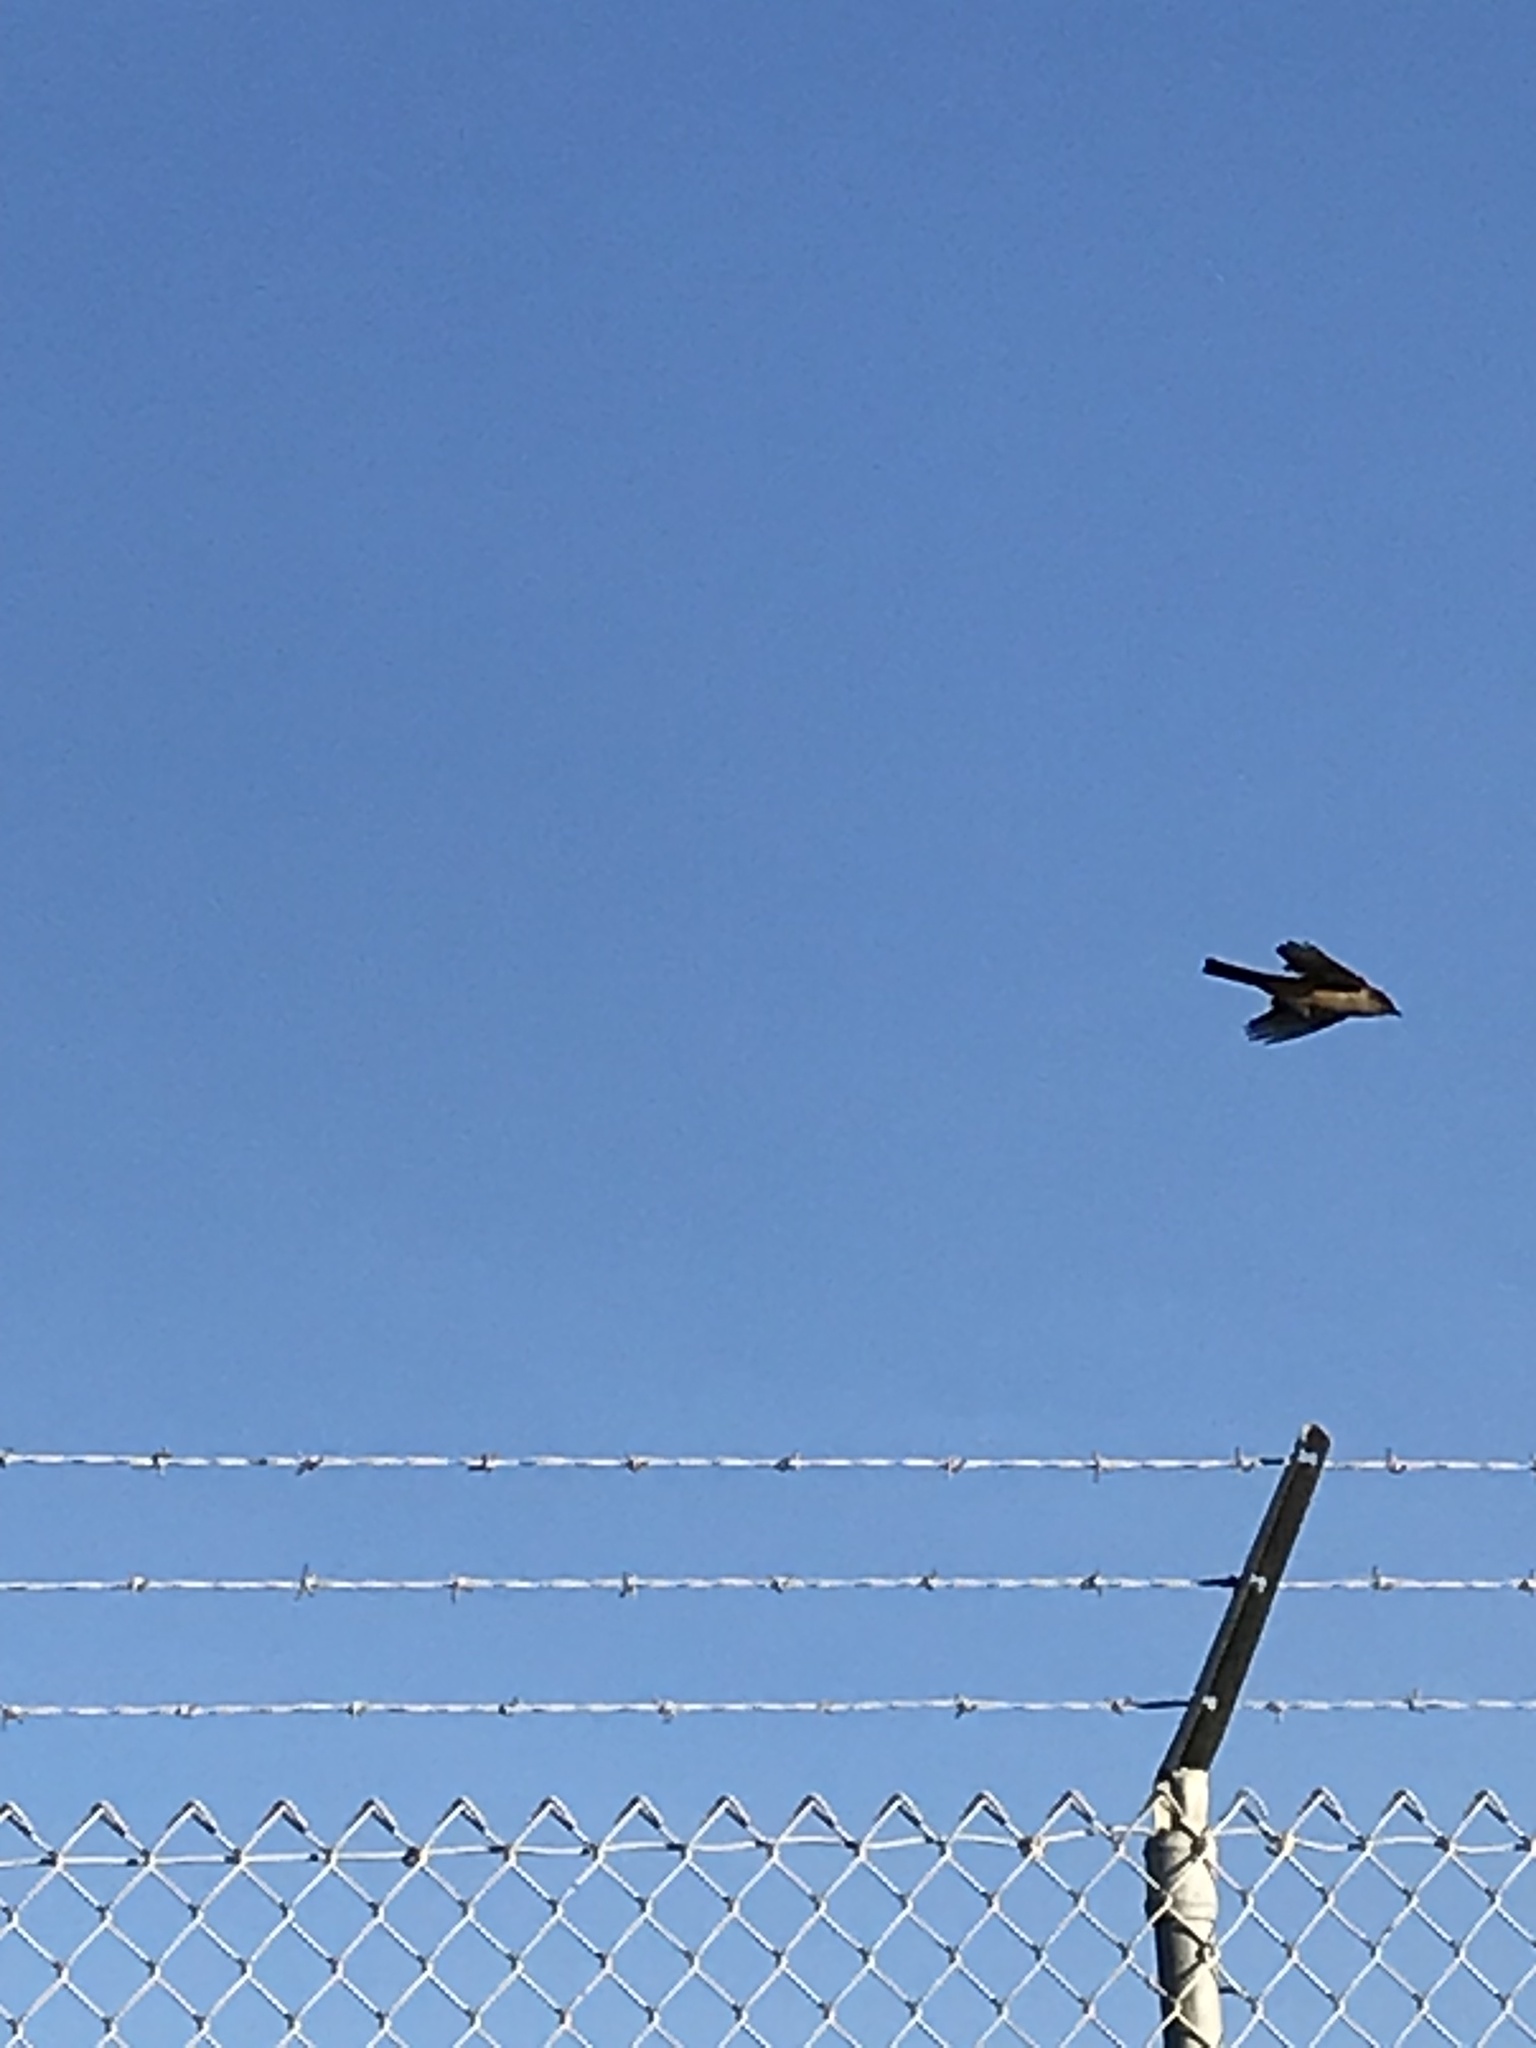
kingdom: Animalia
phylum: Chordata
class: Aves
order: Passeriformes
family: Tyrannidae
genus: Sayornis
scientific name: Sayornis saya
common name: Say's phoebe
